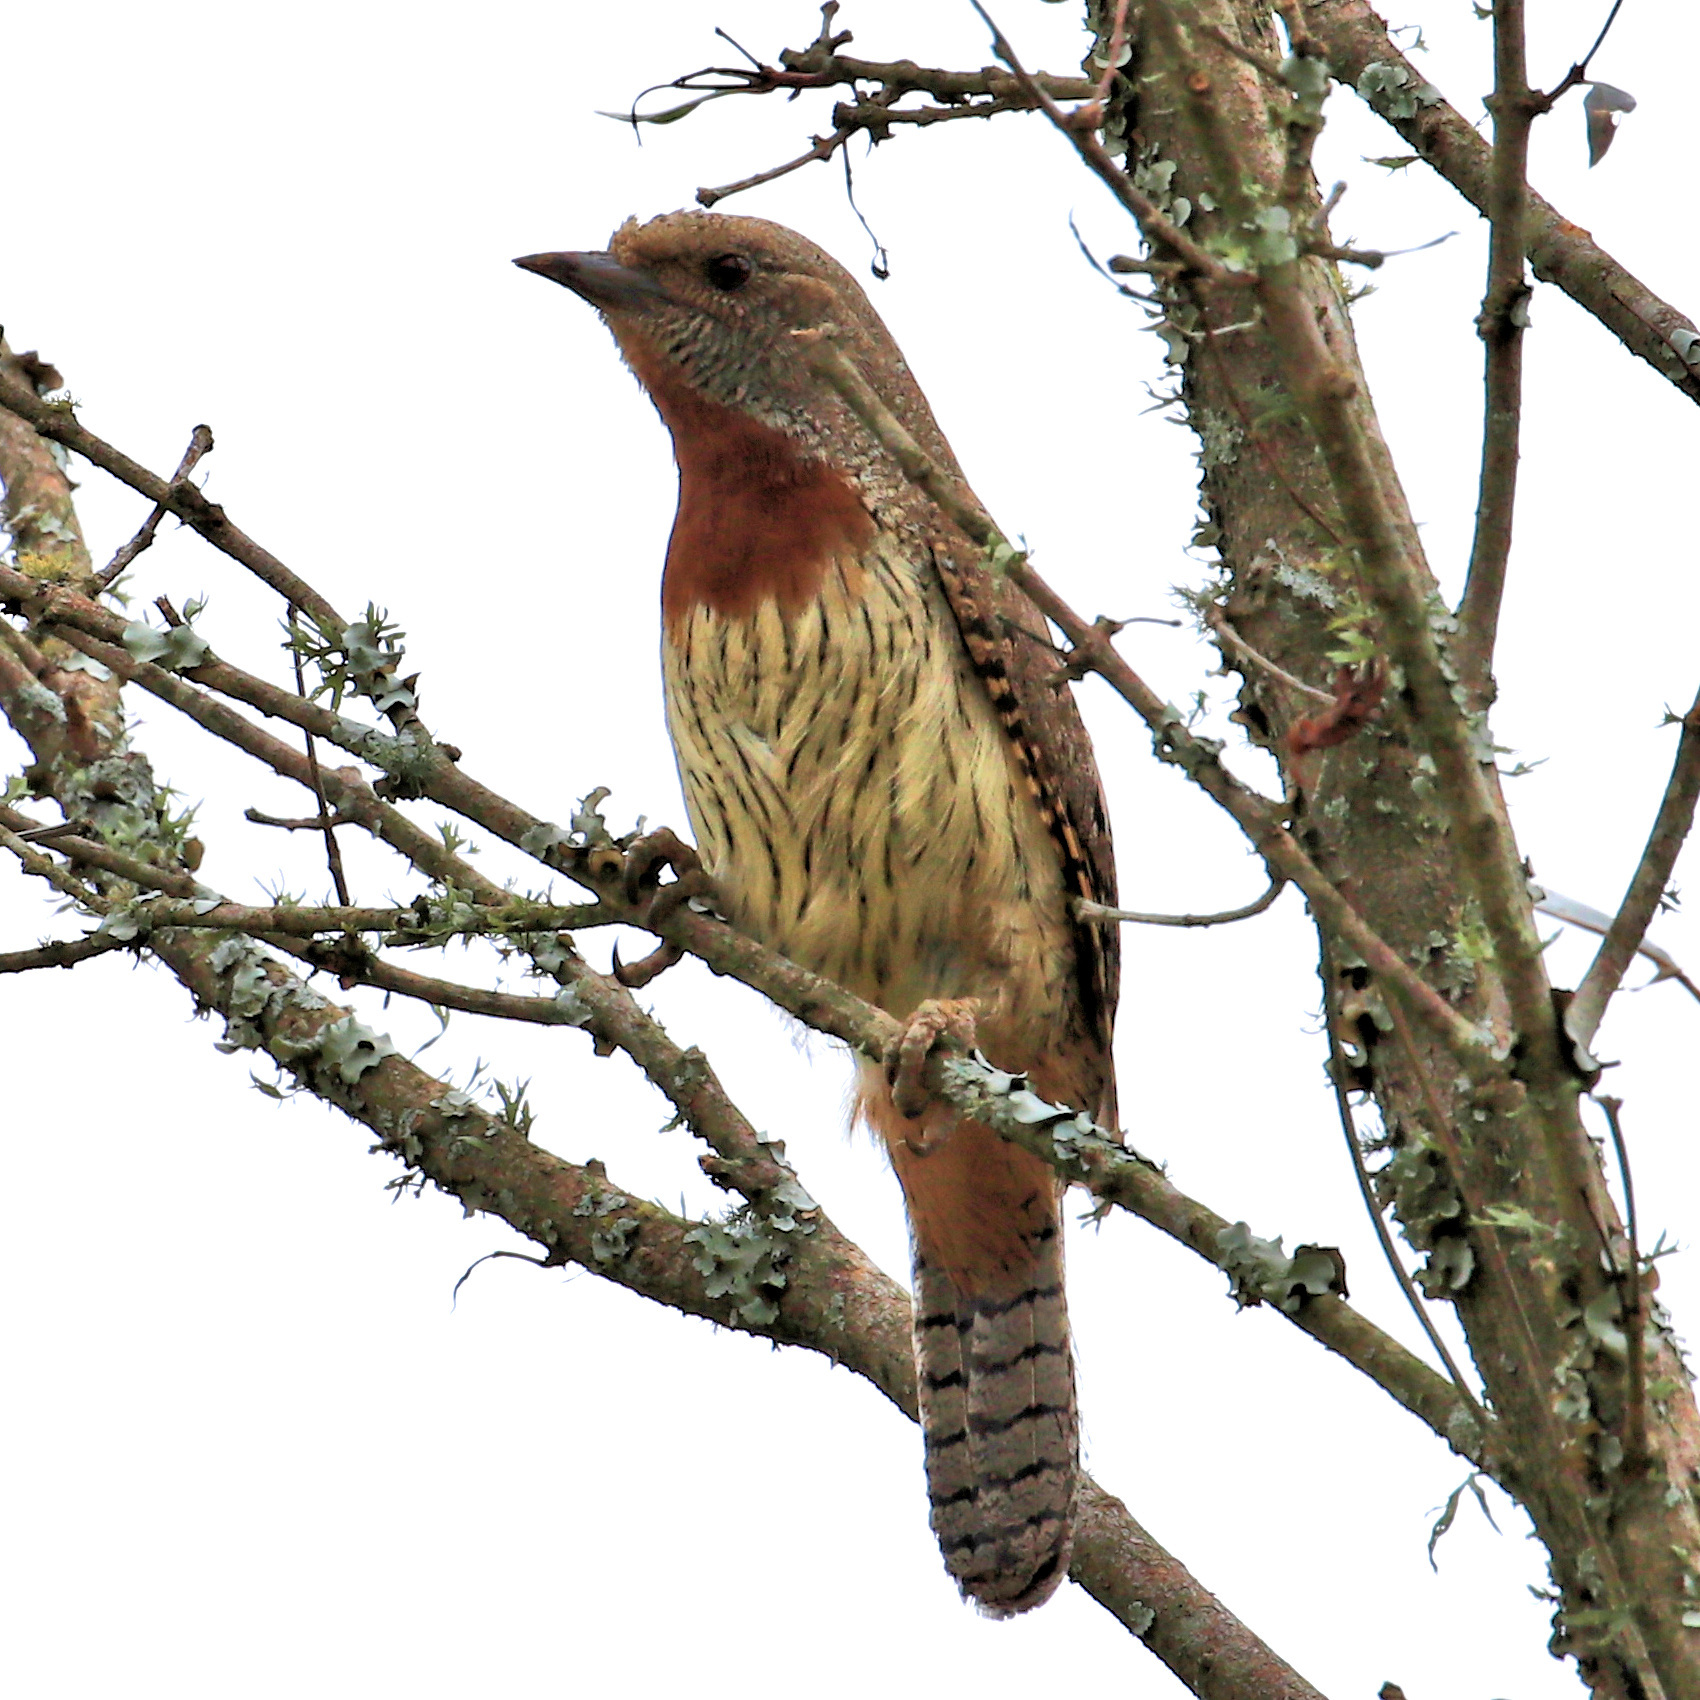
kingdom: Animalia
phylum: Chordata
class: Aves
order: Piciformes
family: Picidae
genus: Jynx
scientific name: Jynx ruficollis
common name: Red-throated wryneck
